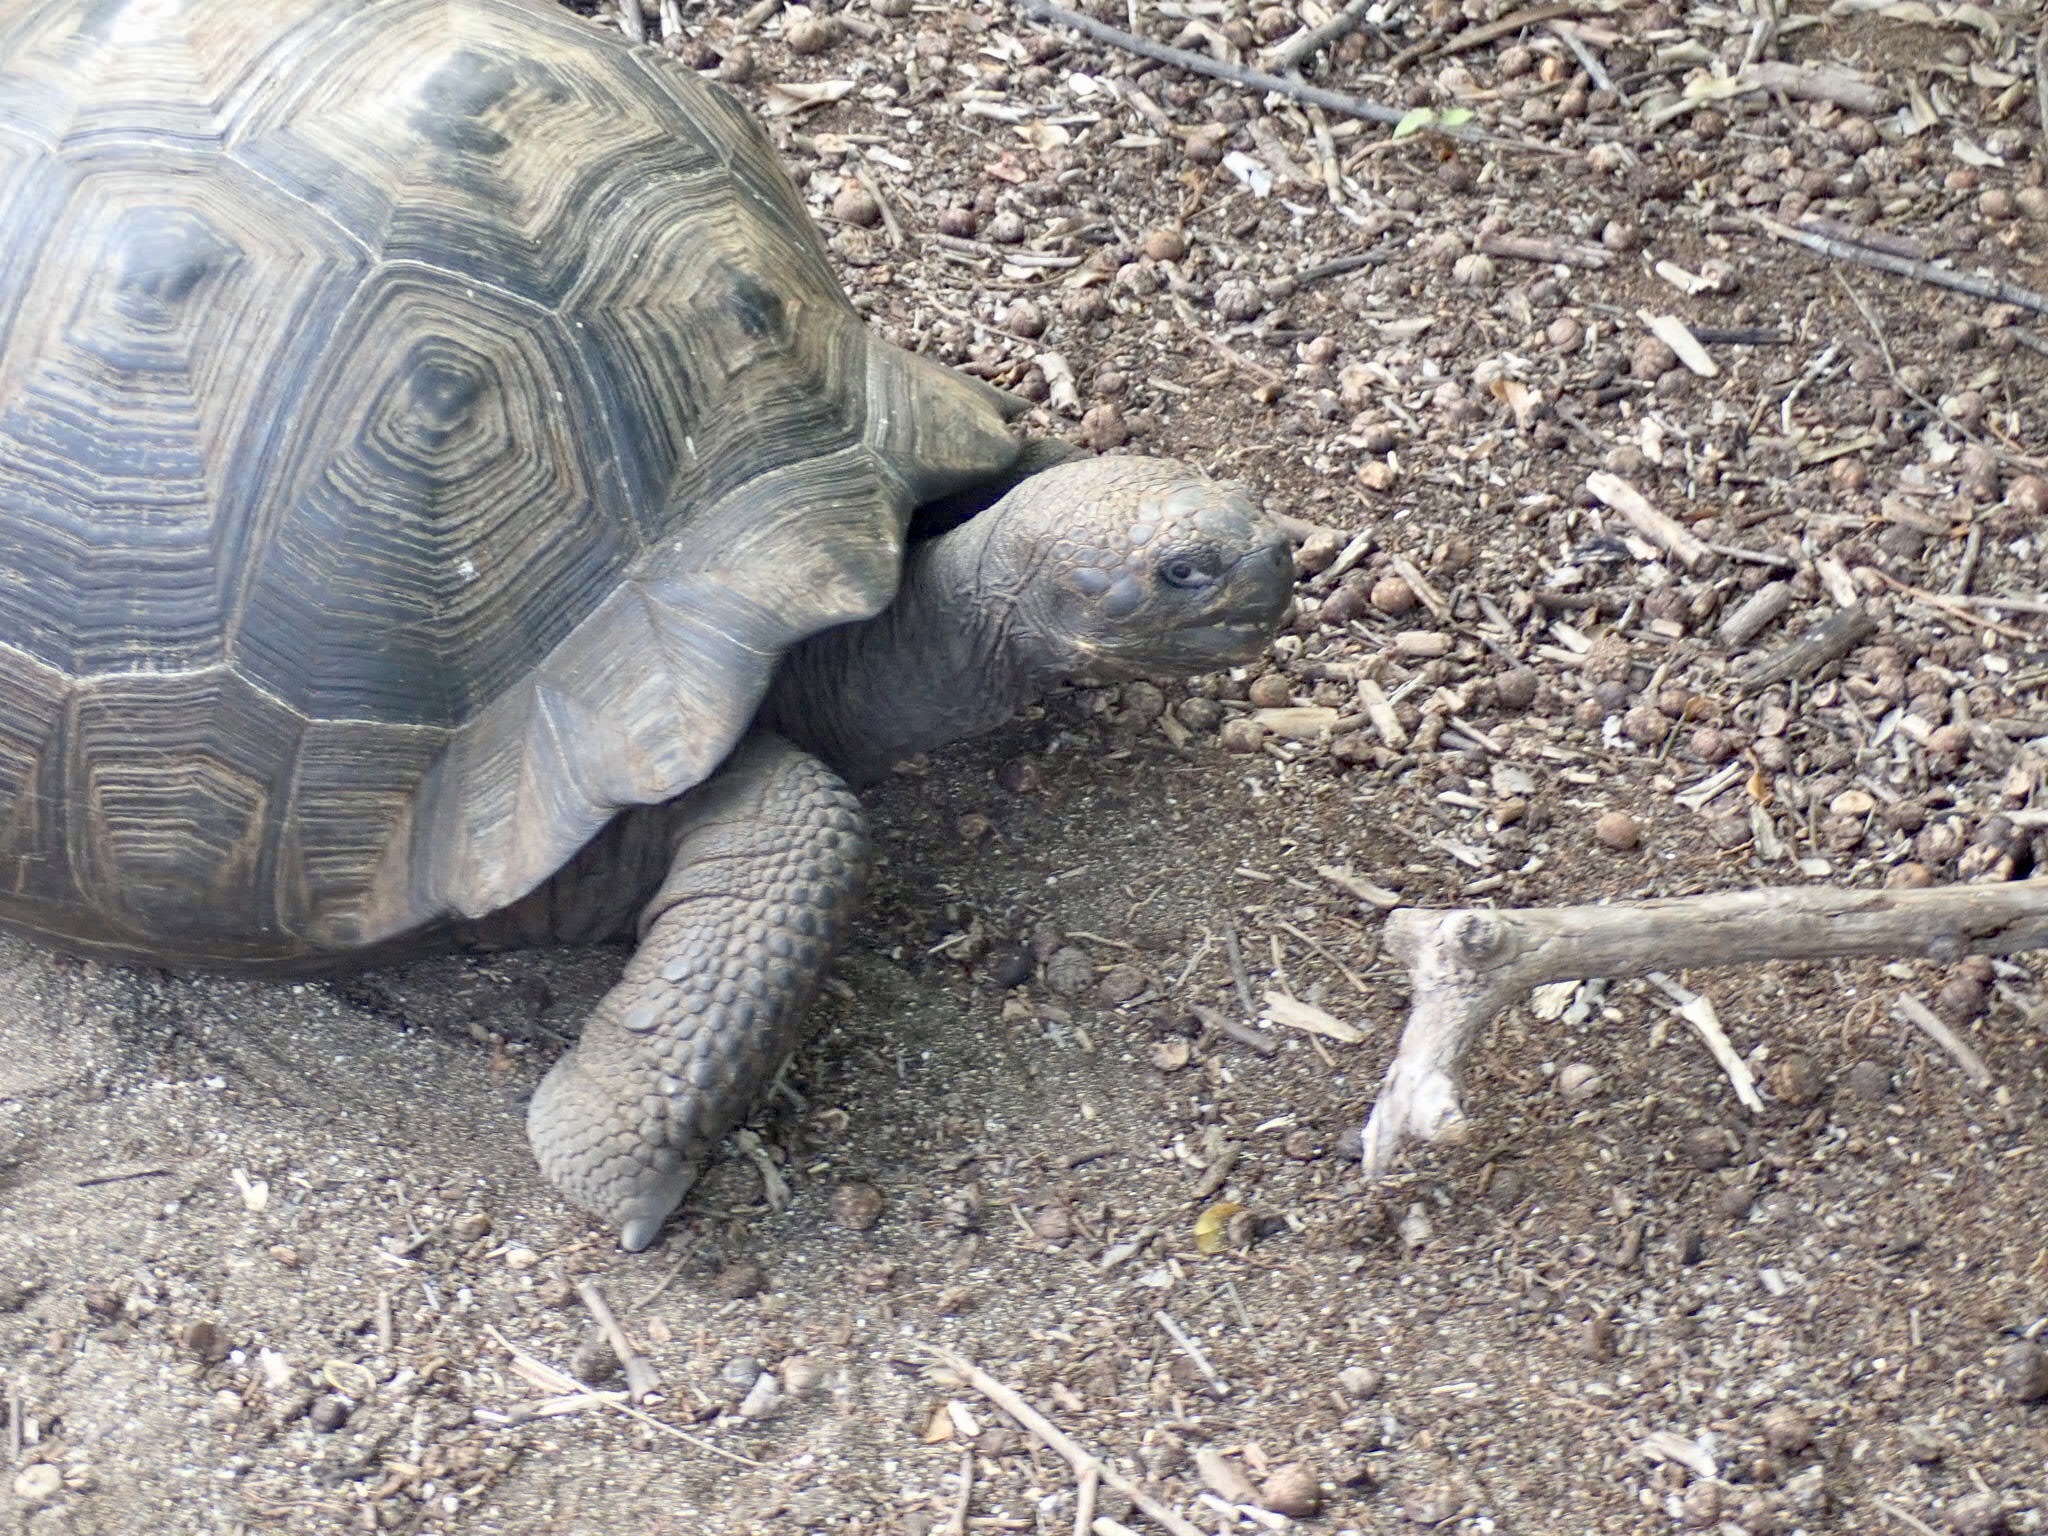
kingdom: Animalia
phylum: Chordata
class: Testudines
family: Testudinidae
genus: Chelonoidis
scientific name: Chelonoidis vandenburghi
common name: Alcedo volcano giant tortoise
